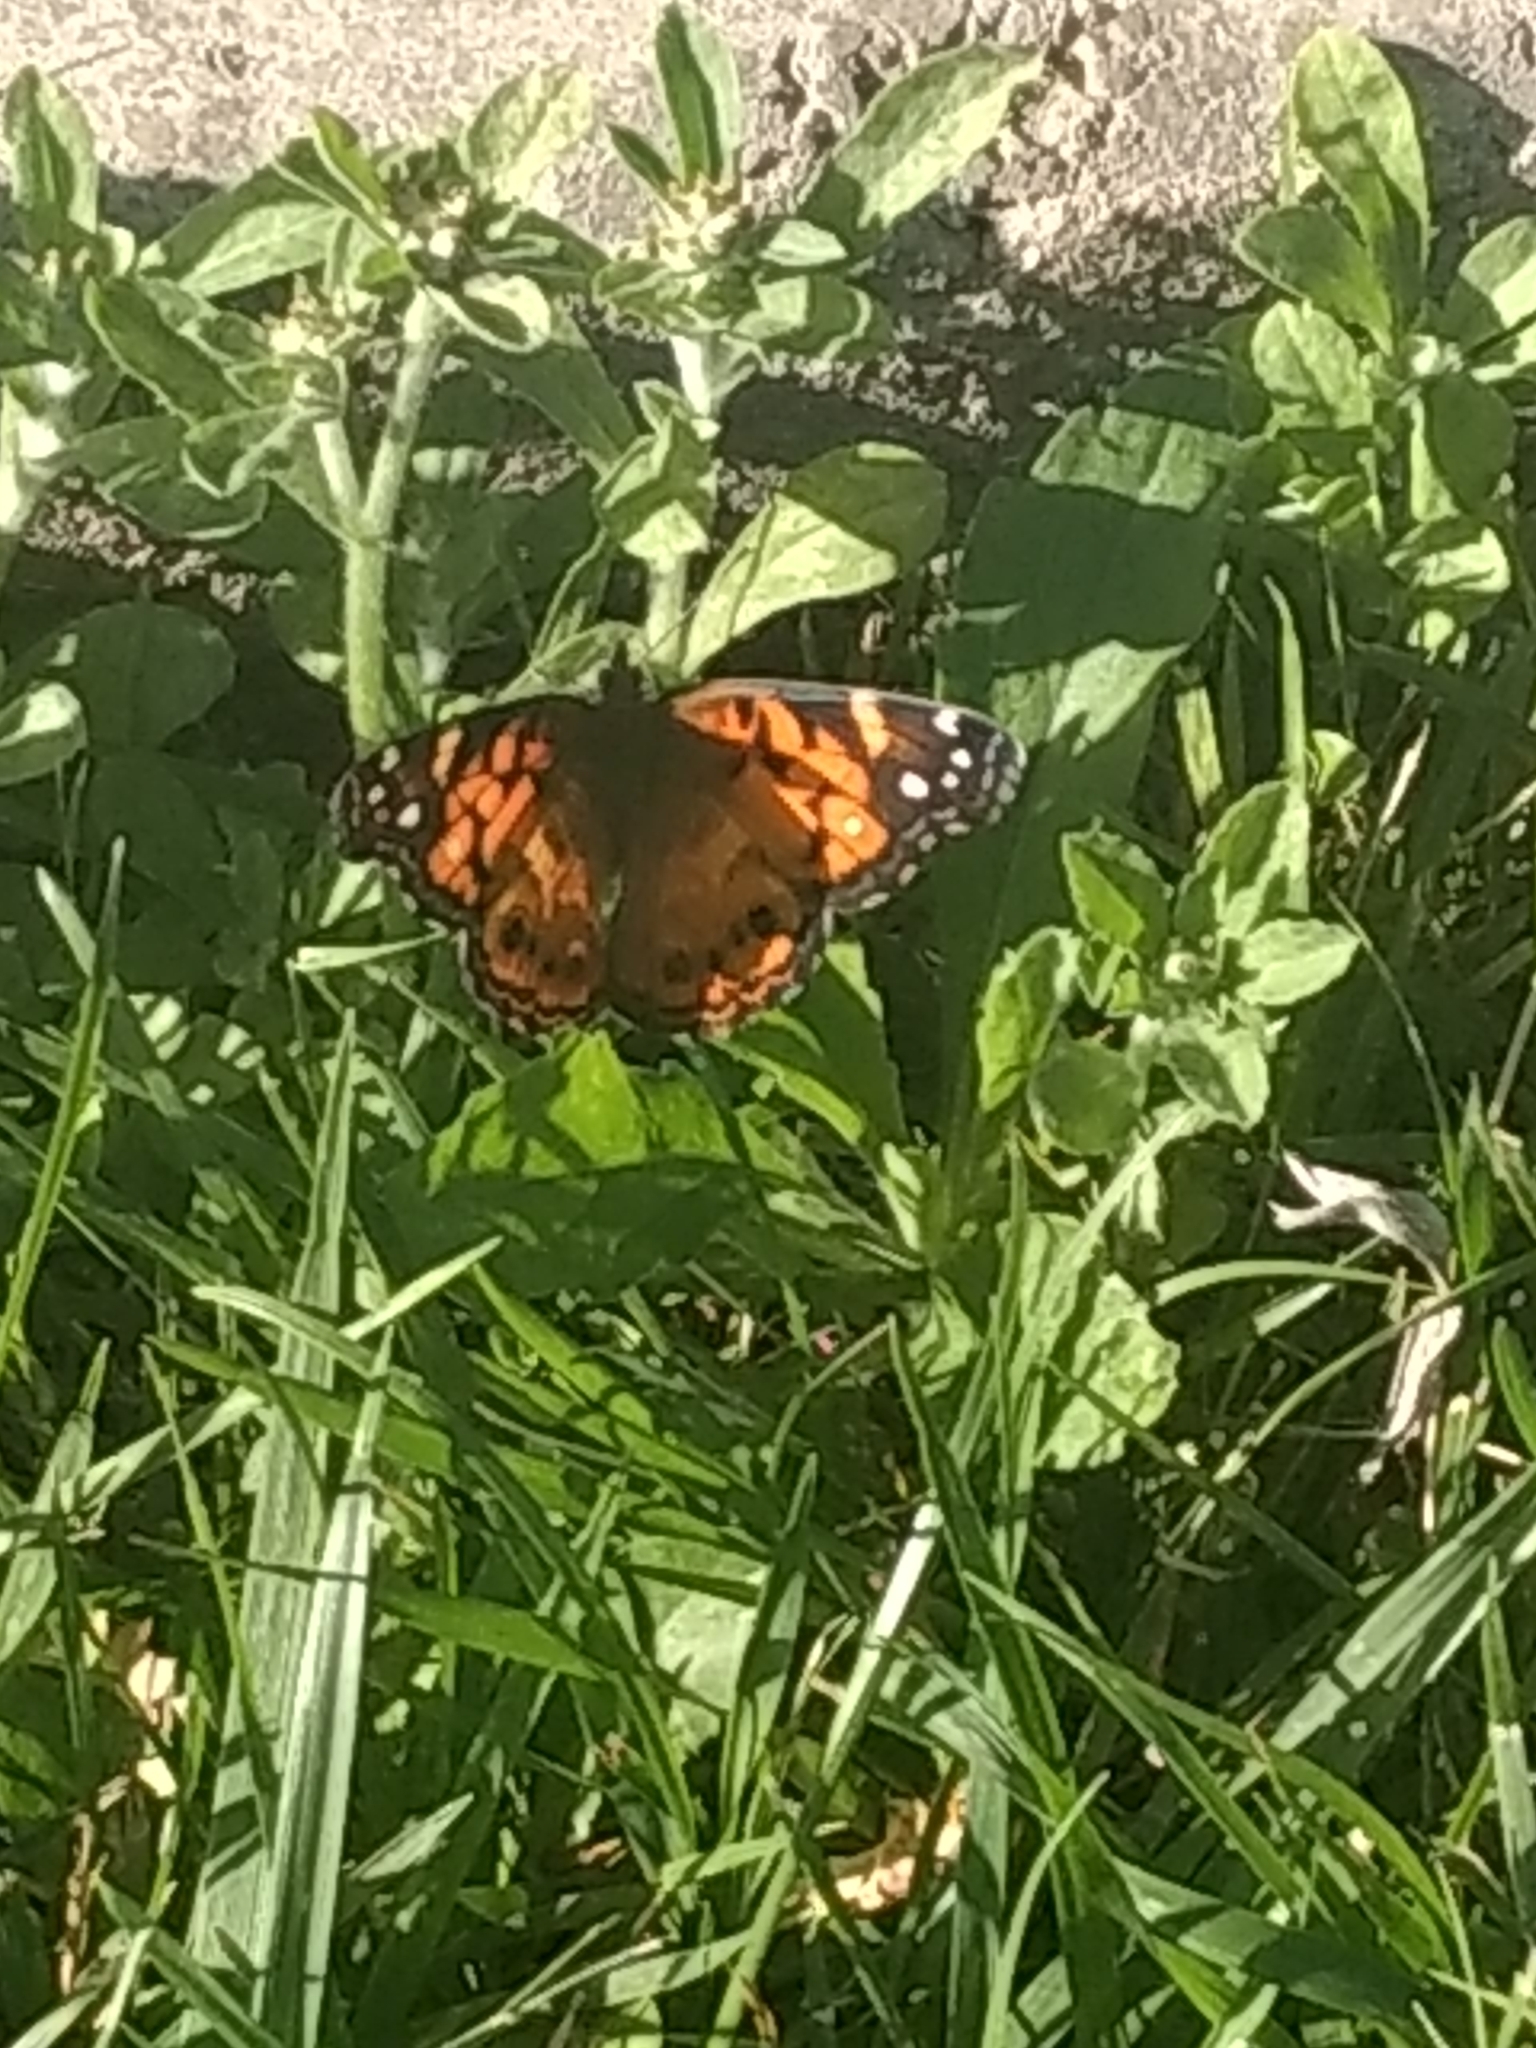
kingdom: Animalia
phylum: Arthropoda
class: Insecta
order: Lepidoptera
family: Nymphalidae
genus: Vanessa
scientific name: Vanessa virginiensis
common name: American lady
